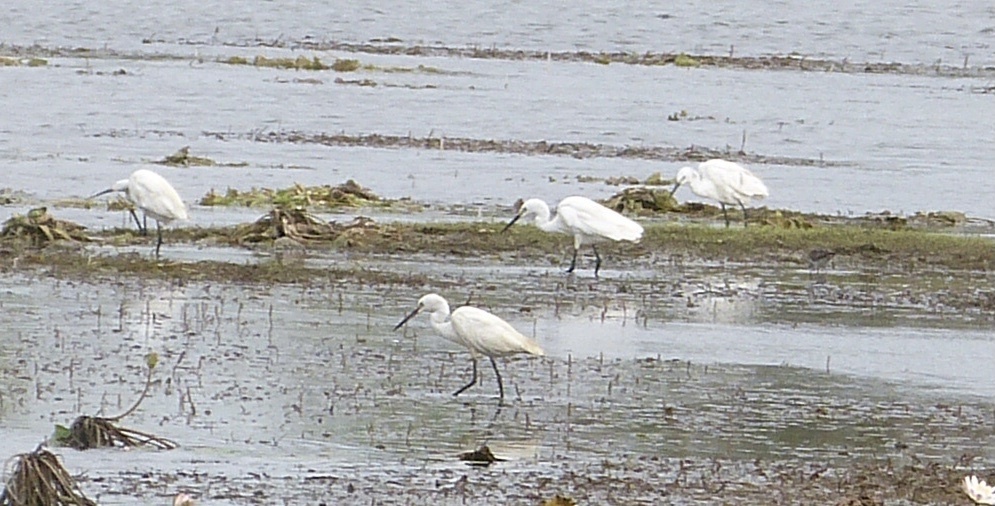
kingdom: Animalia
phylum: Chordata
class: Aves
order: Pelecaniformes
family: Ardeidae
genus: Egretta
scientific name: Egretta garzetta
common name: Little egret
